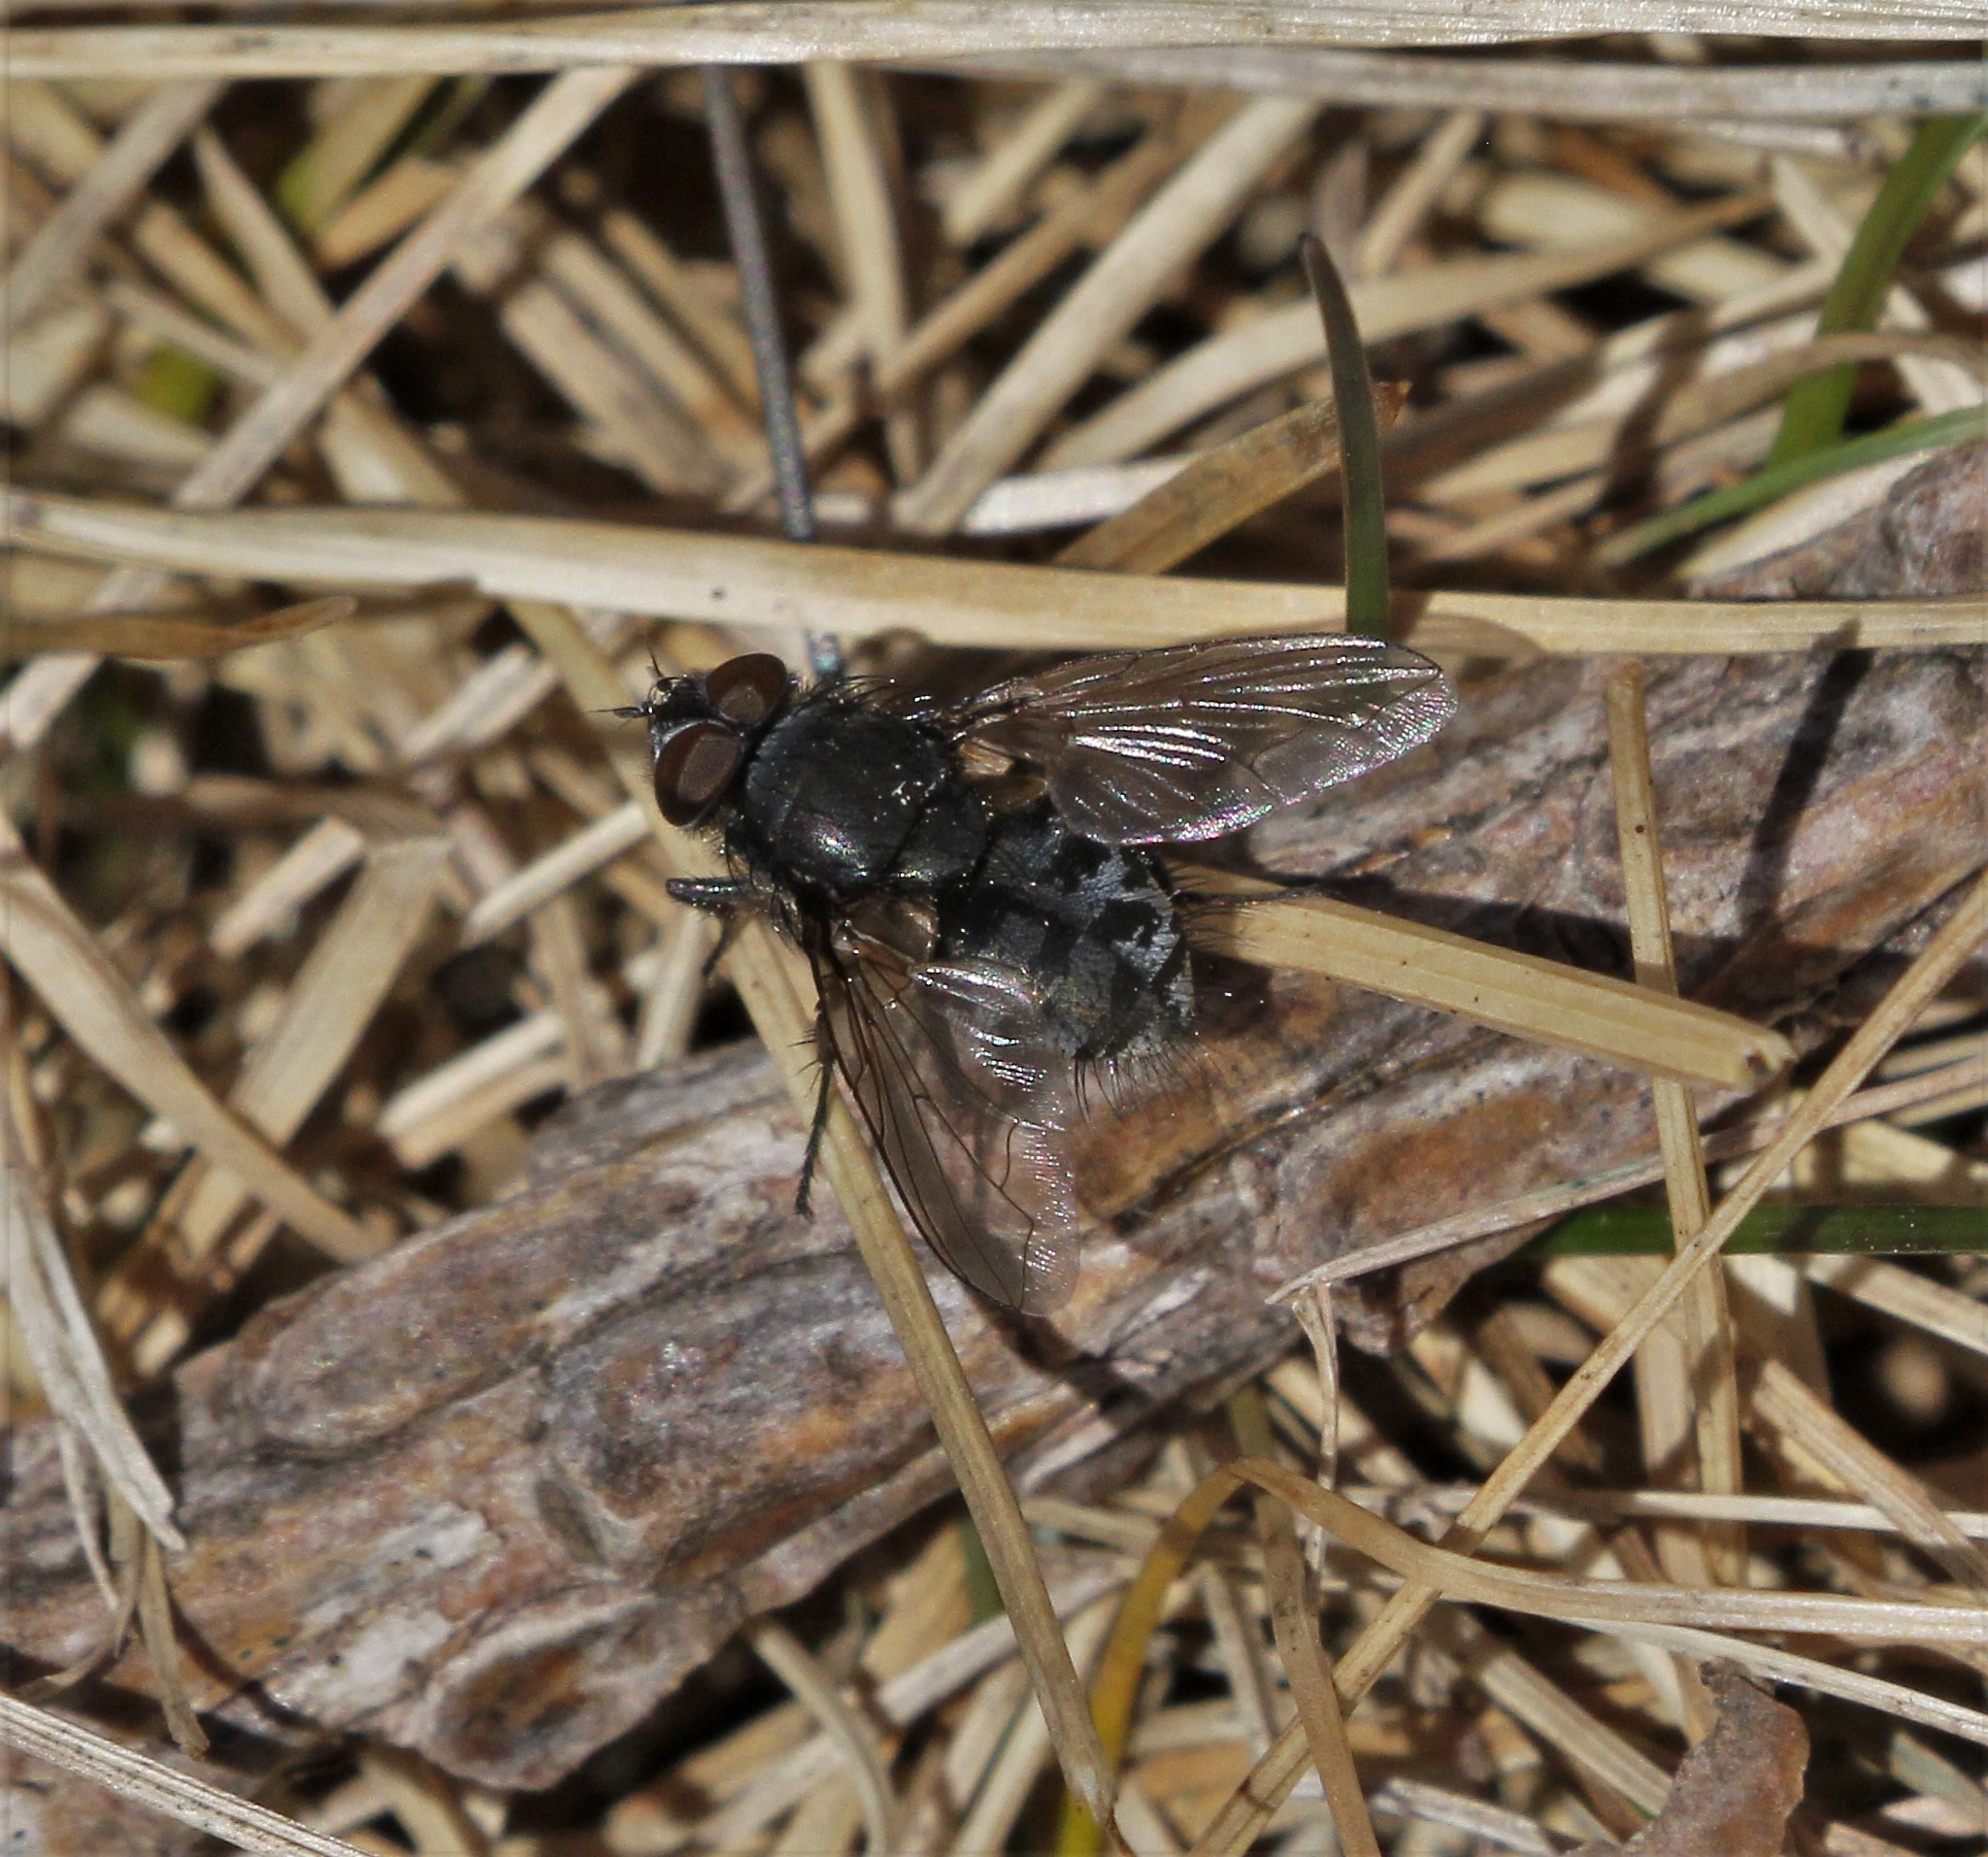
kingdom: Animalia
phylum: Arthropoda
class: Insecta
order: Diptera
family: Polleniidae
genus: Pollenia
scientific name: Pollenia
